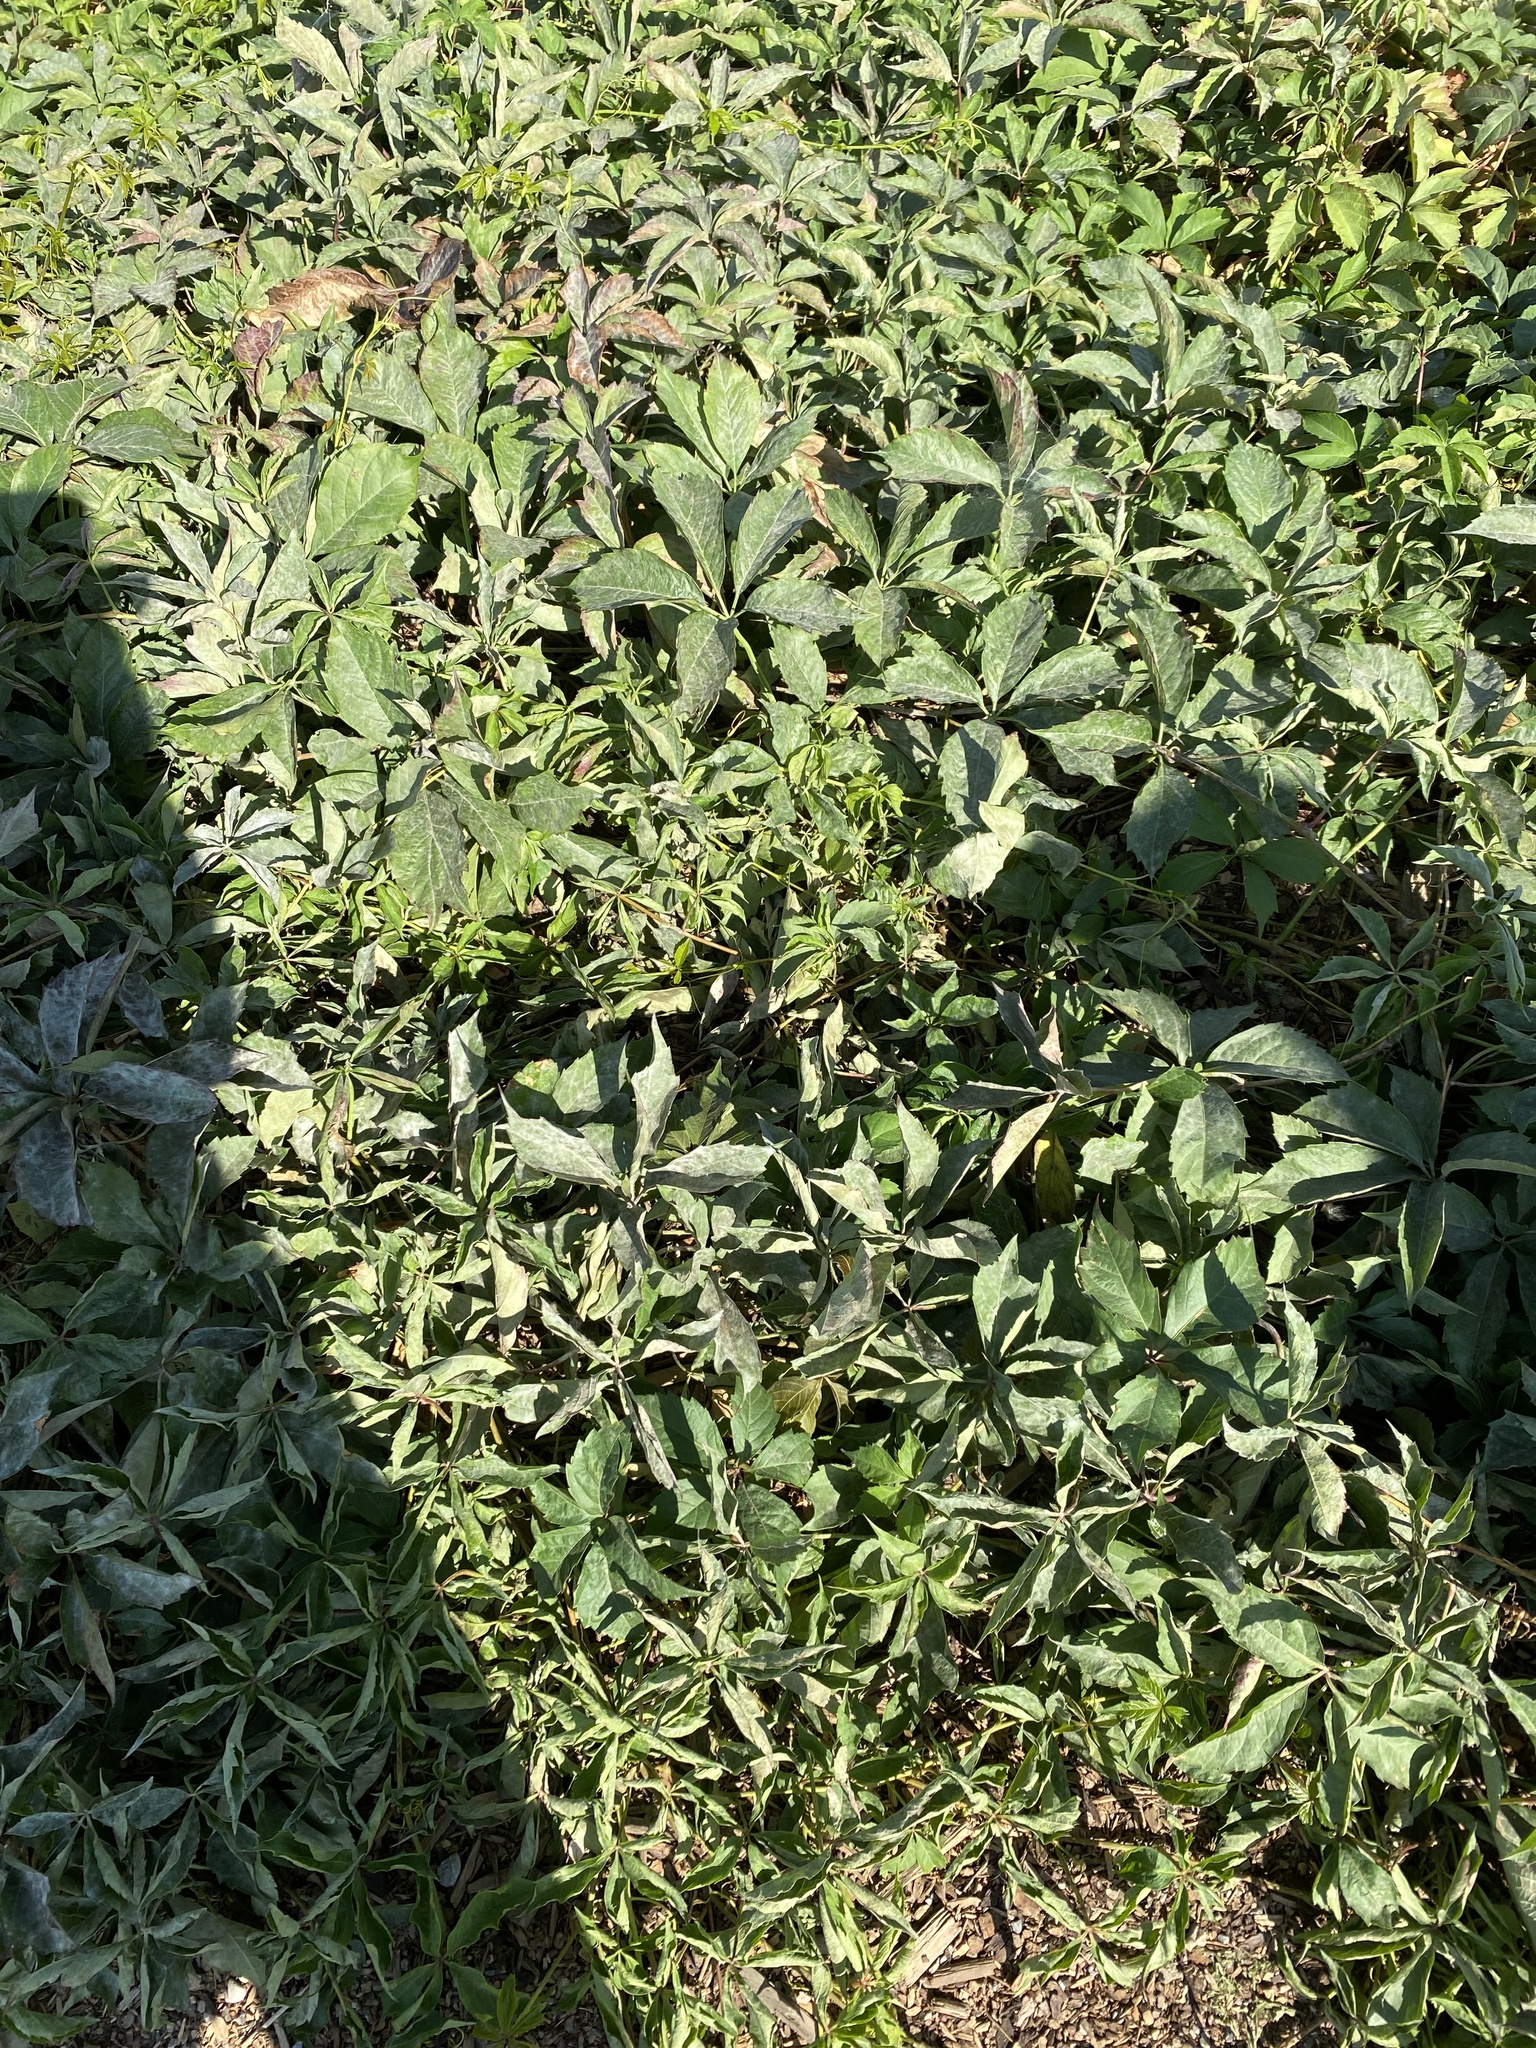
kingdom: Plantae
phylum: Tracheophyta
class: Magnoliopsida
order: Vitales
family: Vitaceae
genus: Parthenocissus
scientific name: Parthenocissus inserta
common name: False virginia-creeper
